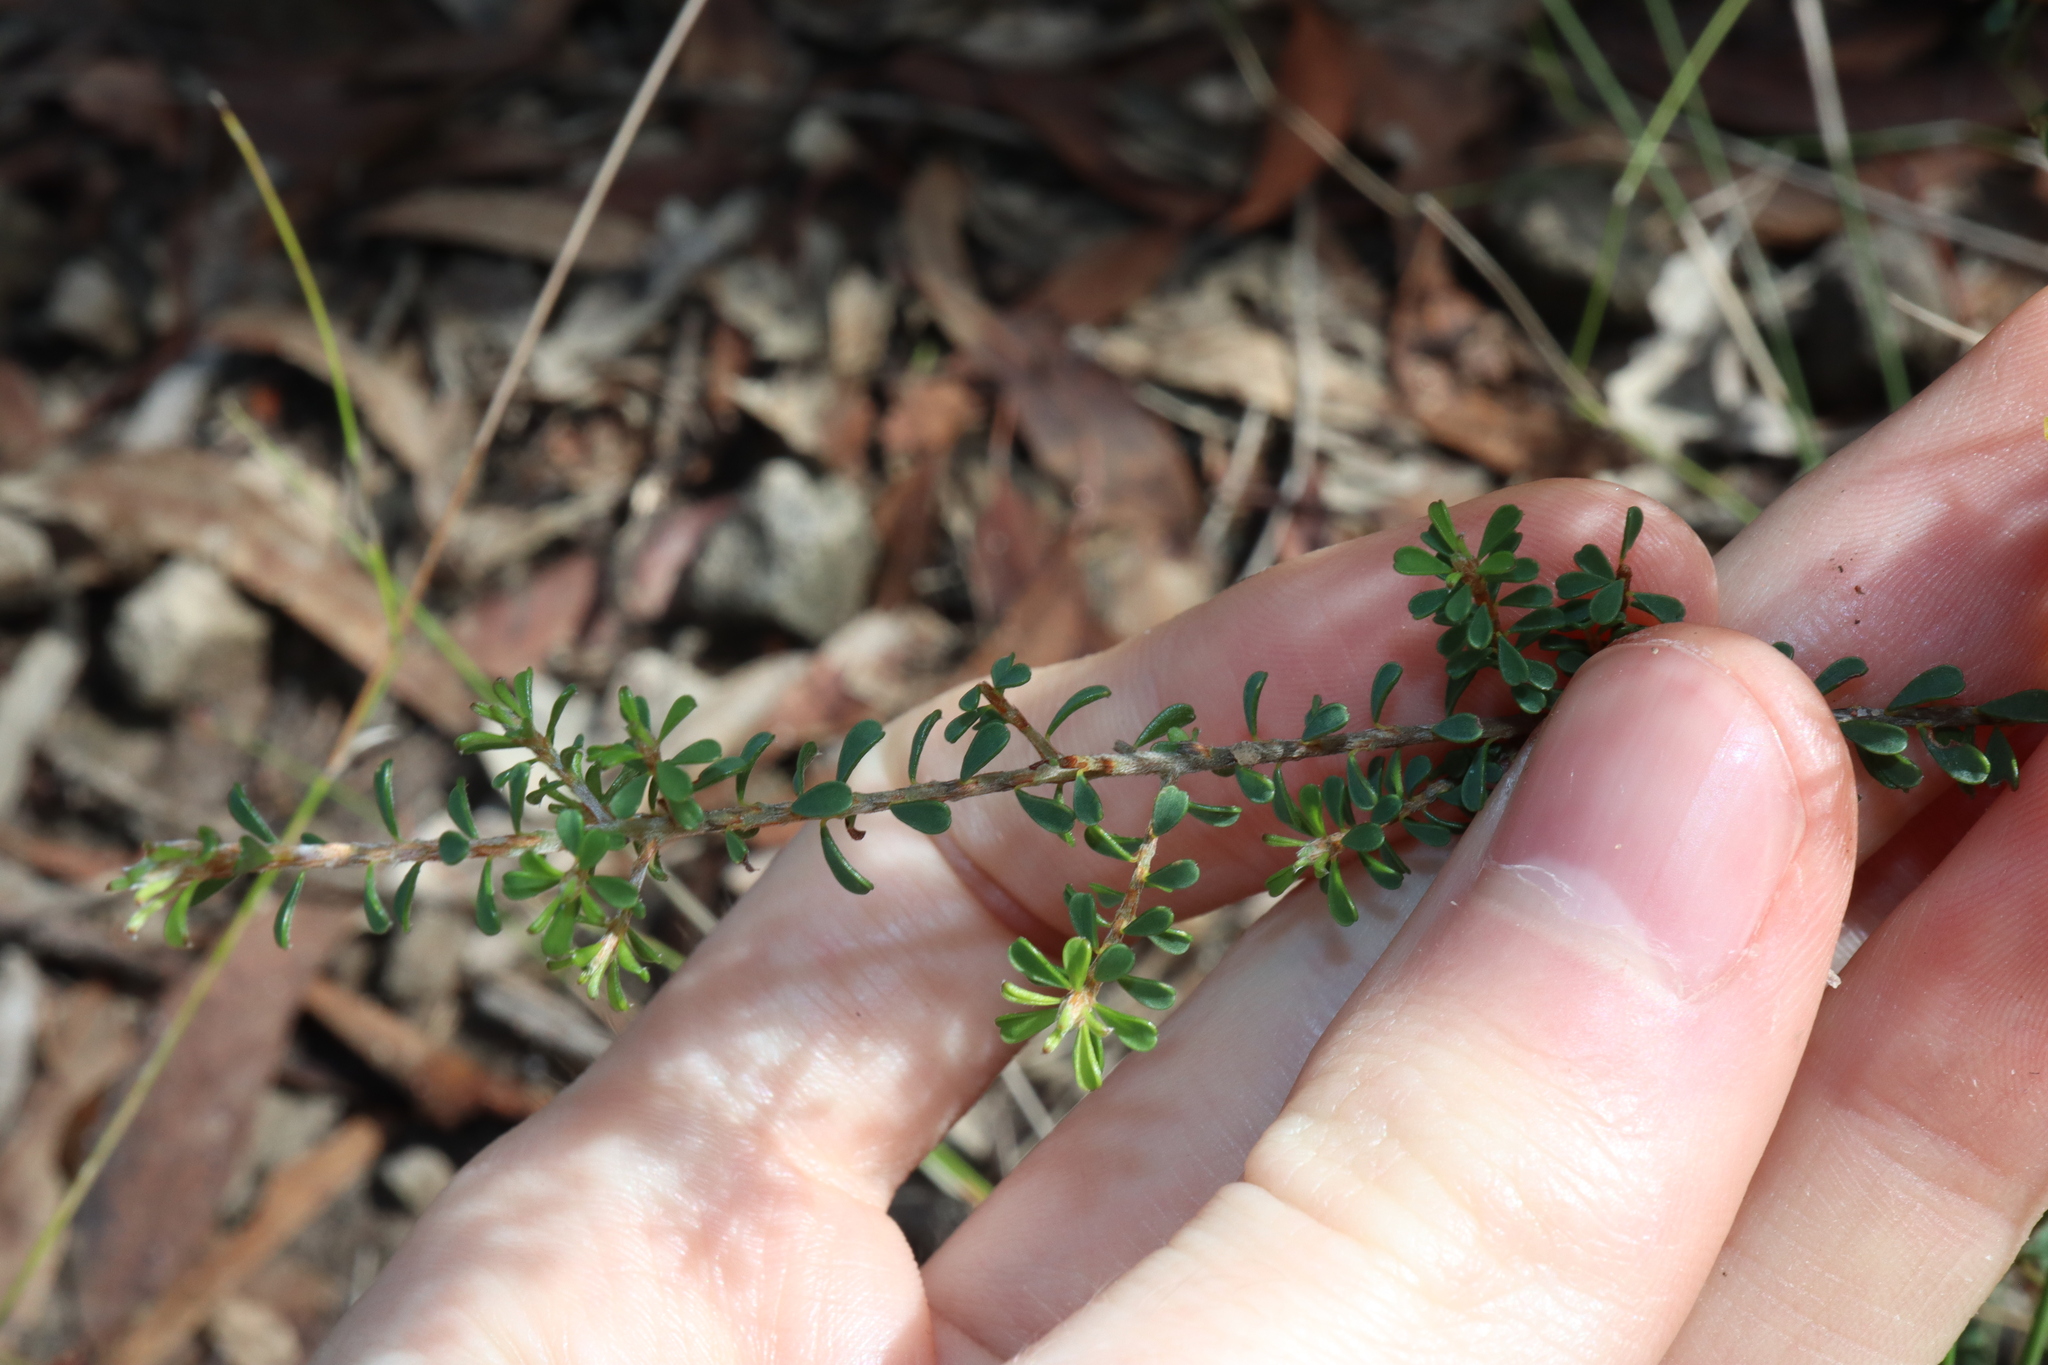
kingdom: Plantae
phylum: Tracheophyta
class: Magnoliopsida
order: Fabales
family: Fabaceae
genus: Pultenaea
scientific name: Pultenaea parviflora
